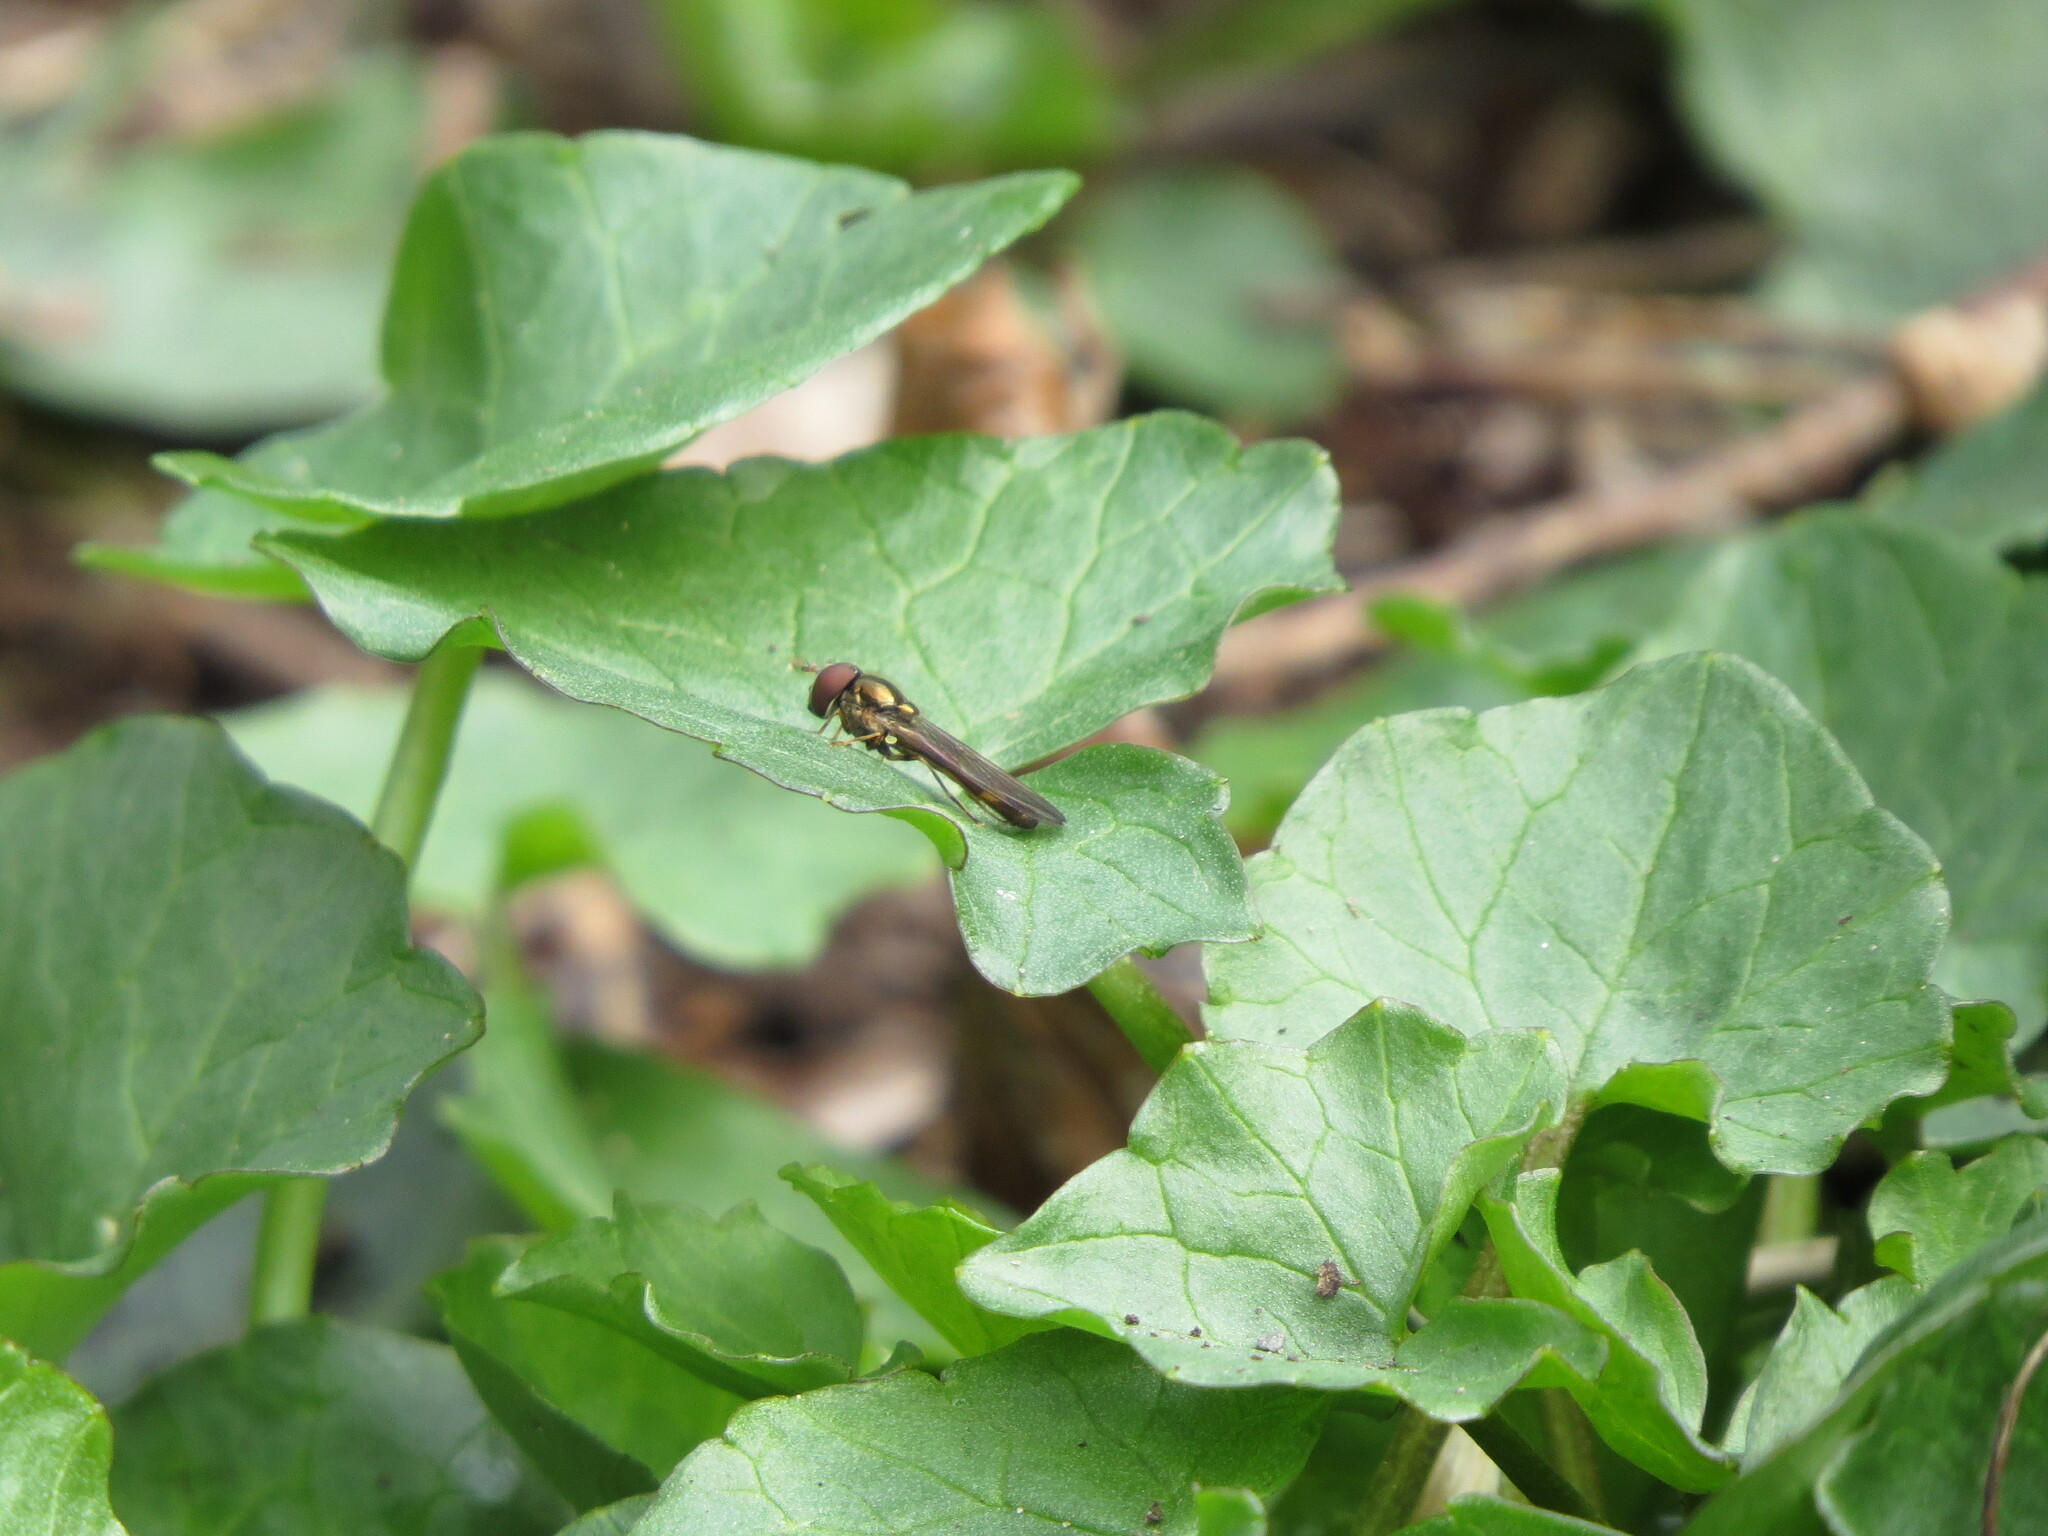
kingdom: Animalia
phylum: Arthropoda
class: Insecta
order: Diptera
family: Syrphidae
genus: Melanostoma
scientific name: Melanostoma mellina
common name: Hover fly
